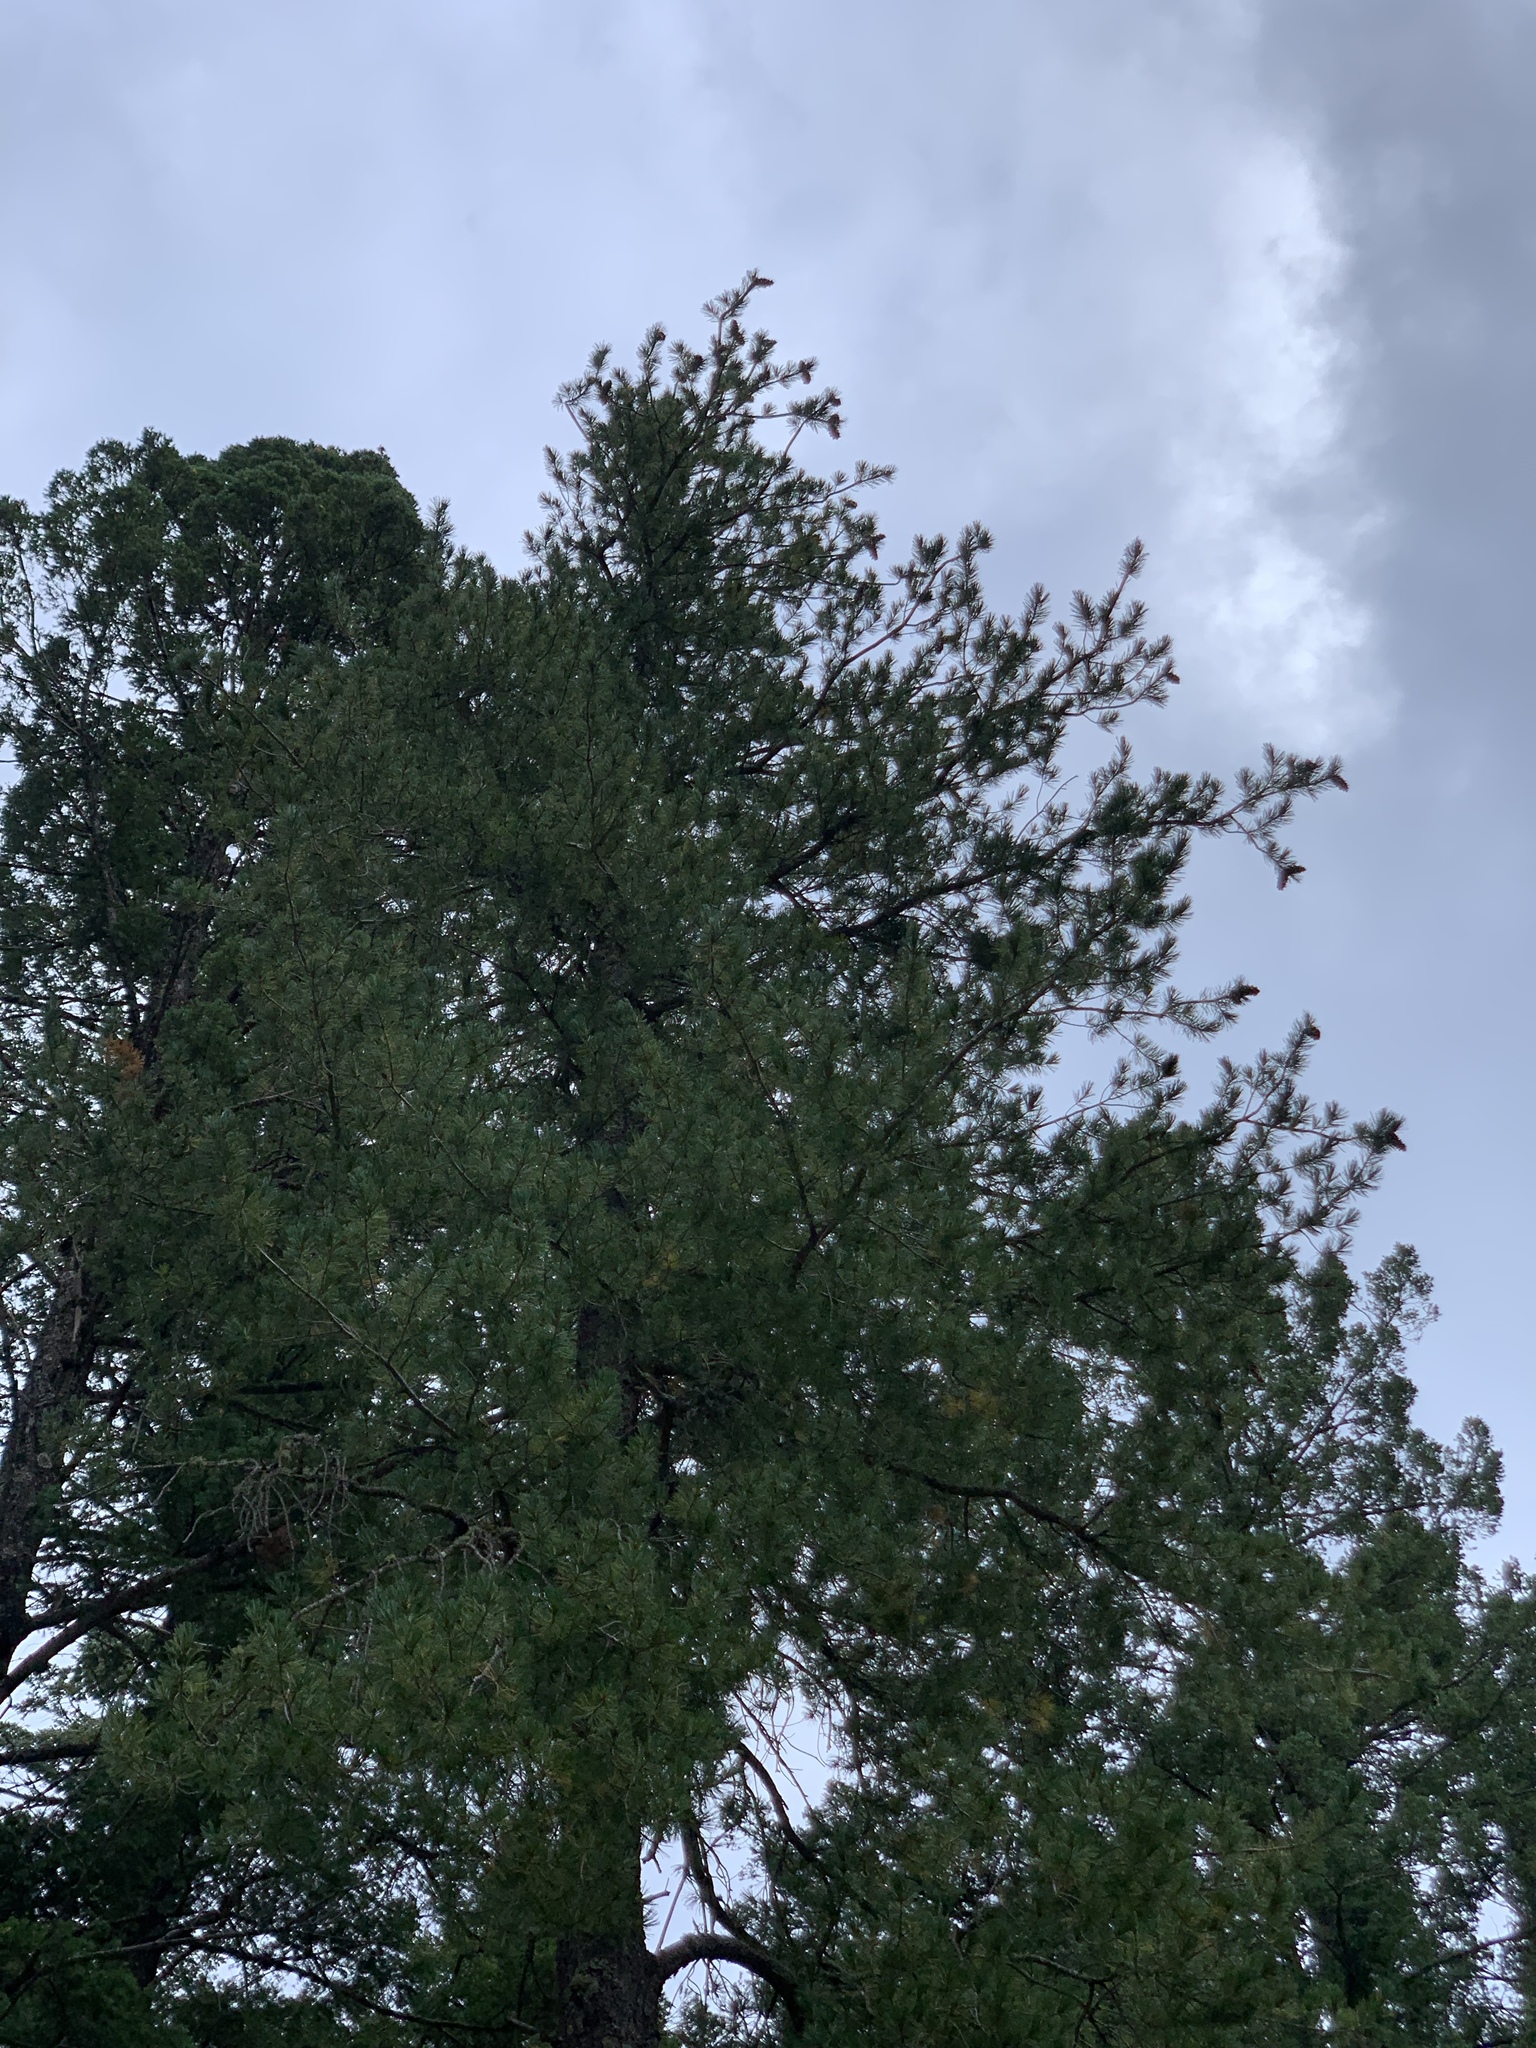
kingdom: Plantae
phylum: Tracheophyta
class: Pinopsida
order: Pinales
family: Pinaceae
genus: Pinus
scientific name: Pinus strobiformis
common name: Southwestern white pine
